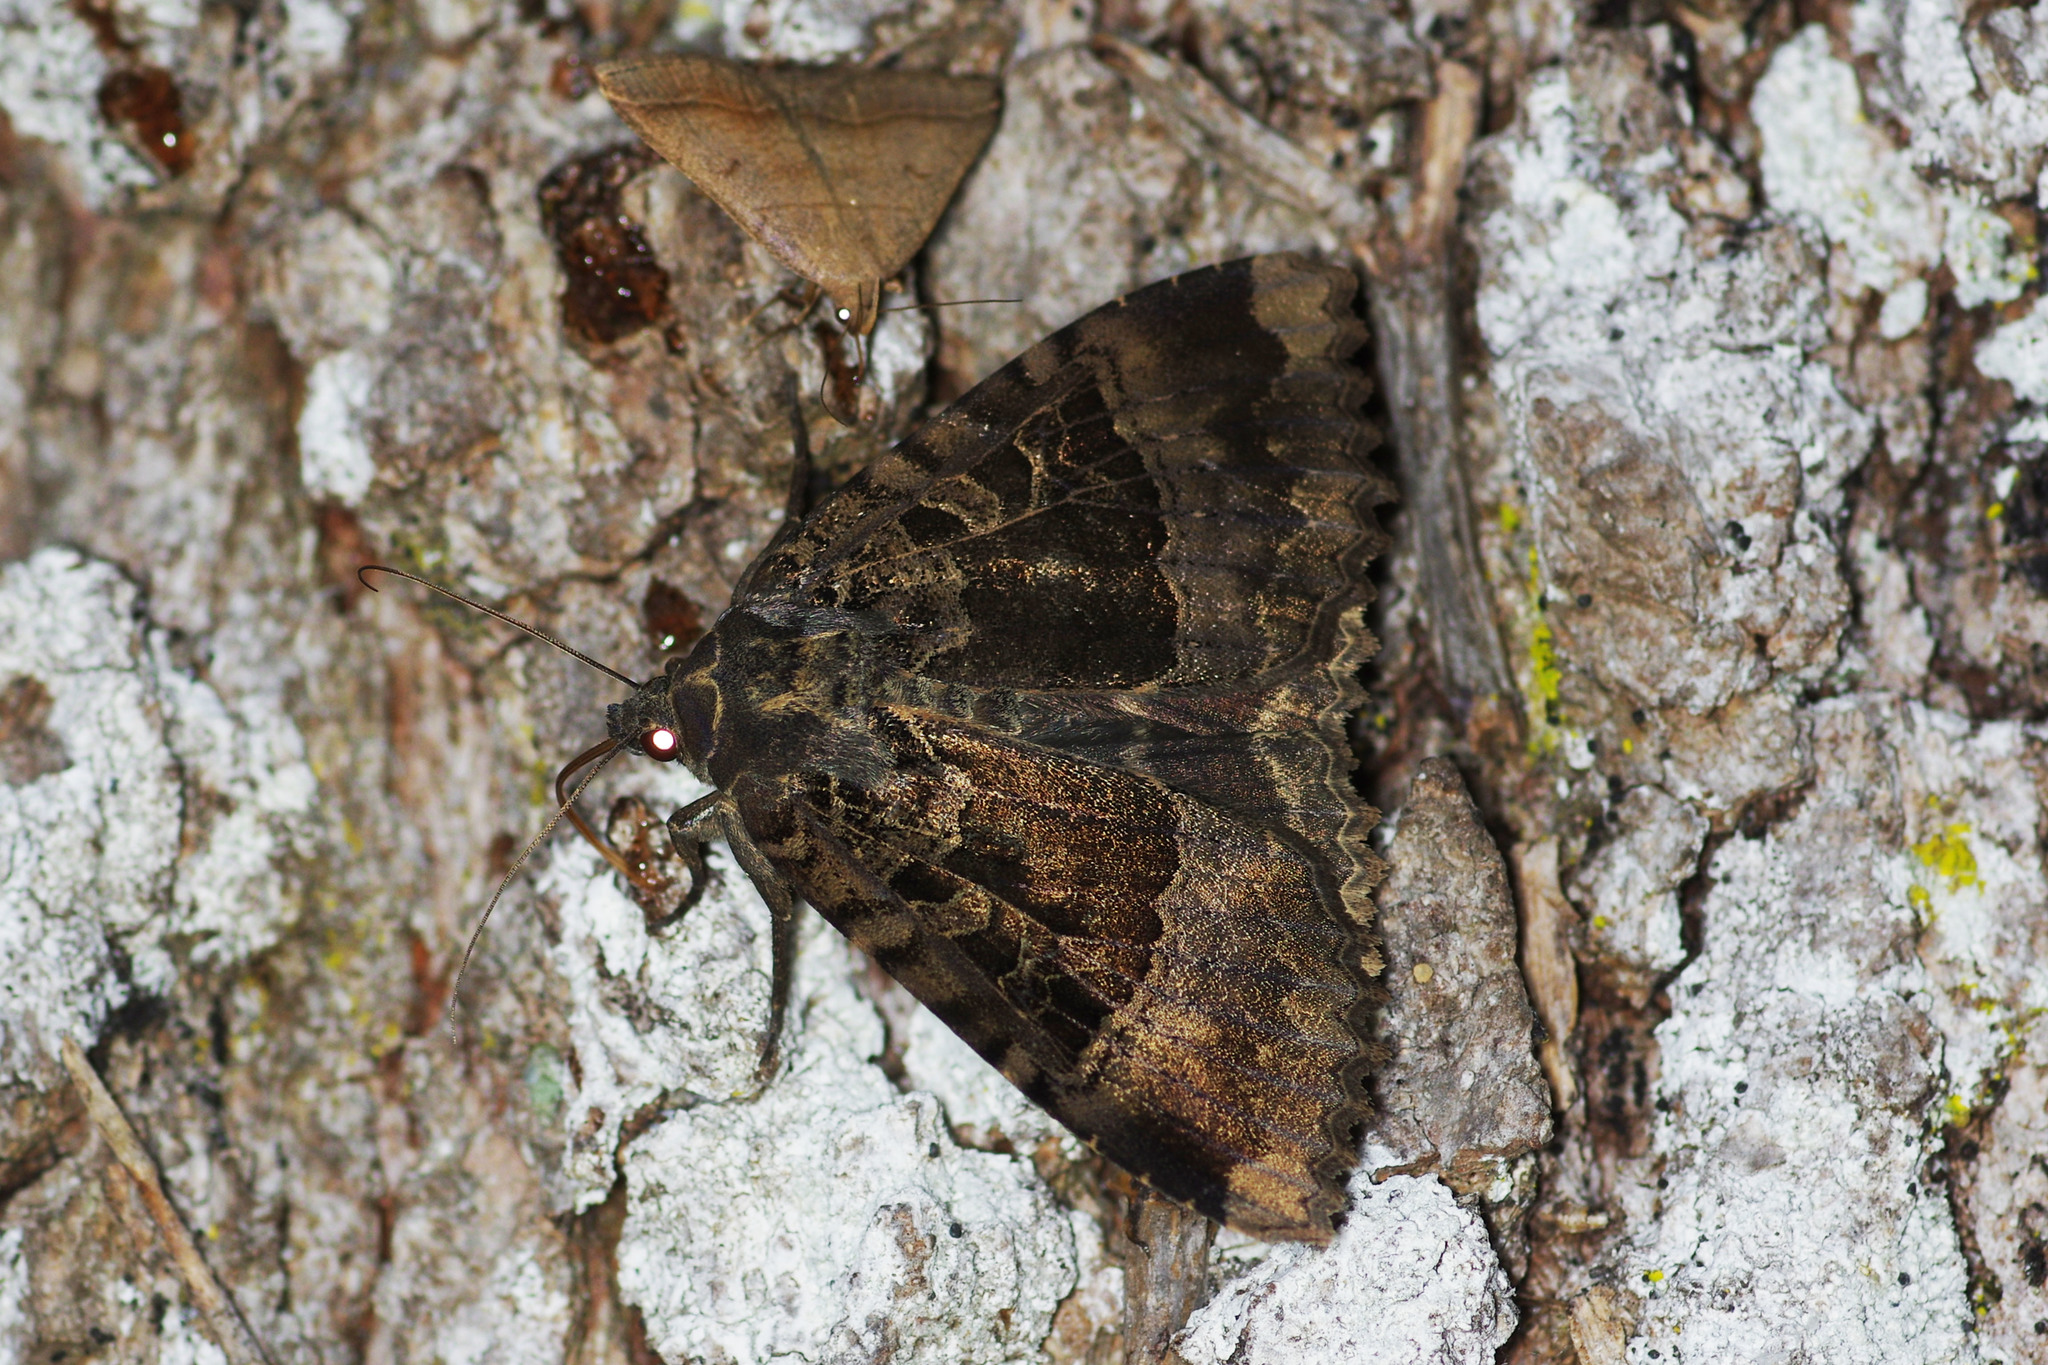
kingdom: Animalia
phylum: Arthropoda
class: Insecta
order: Lepidoptera
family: Noctuidae
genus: Mormo
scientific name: Mormo maura
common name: Old lady
